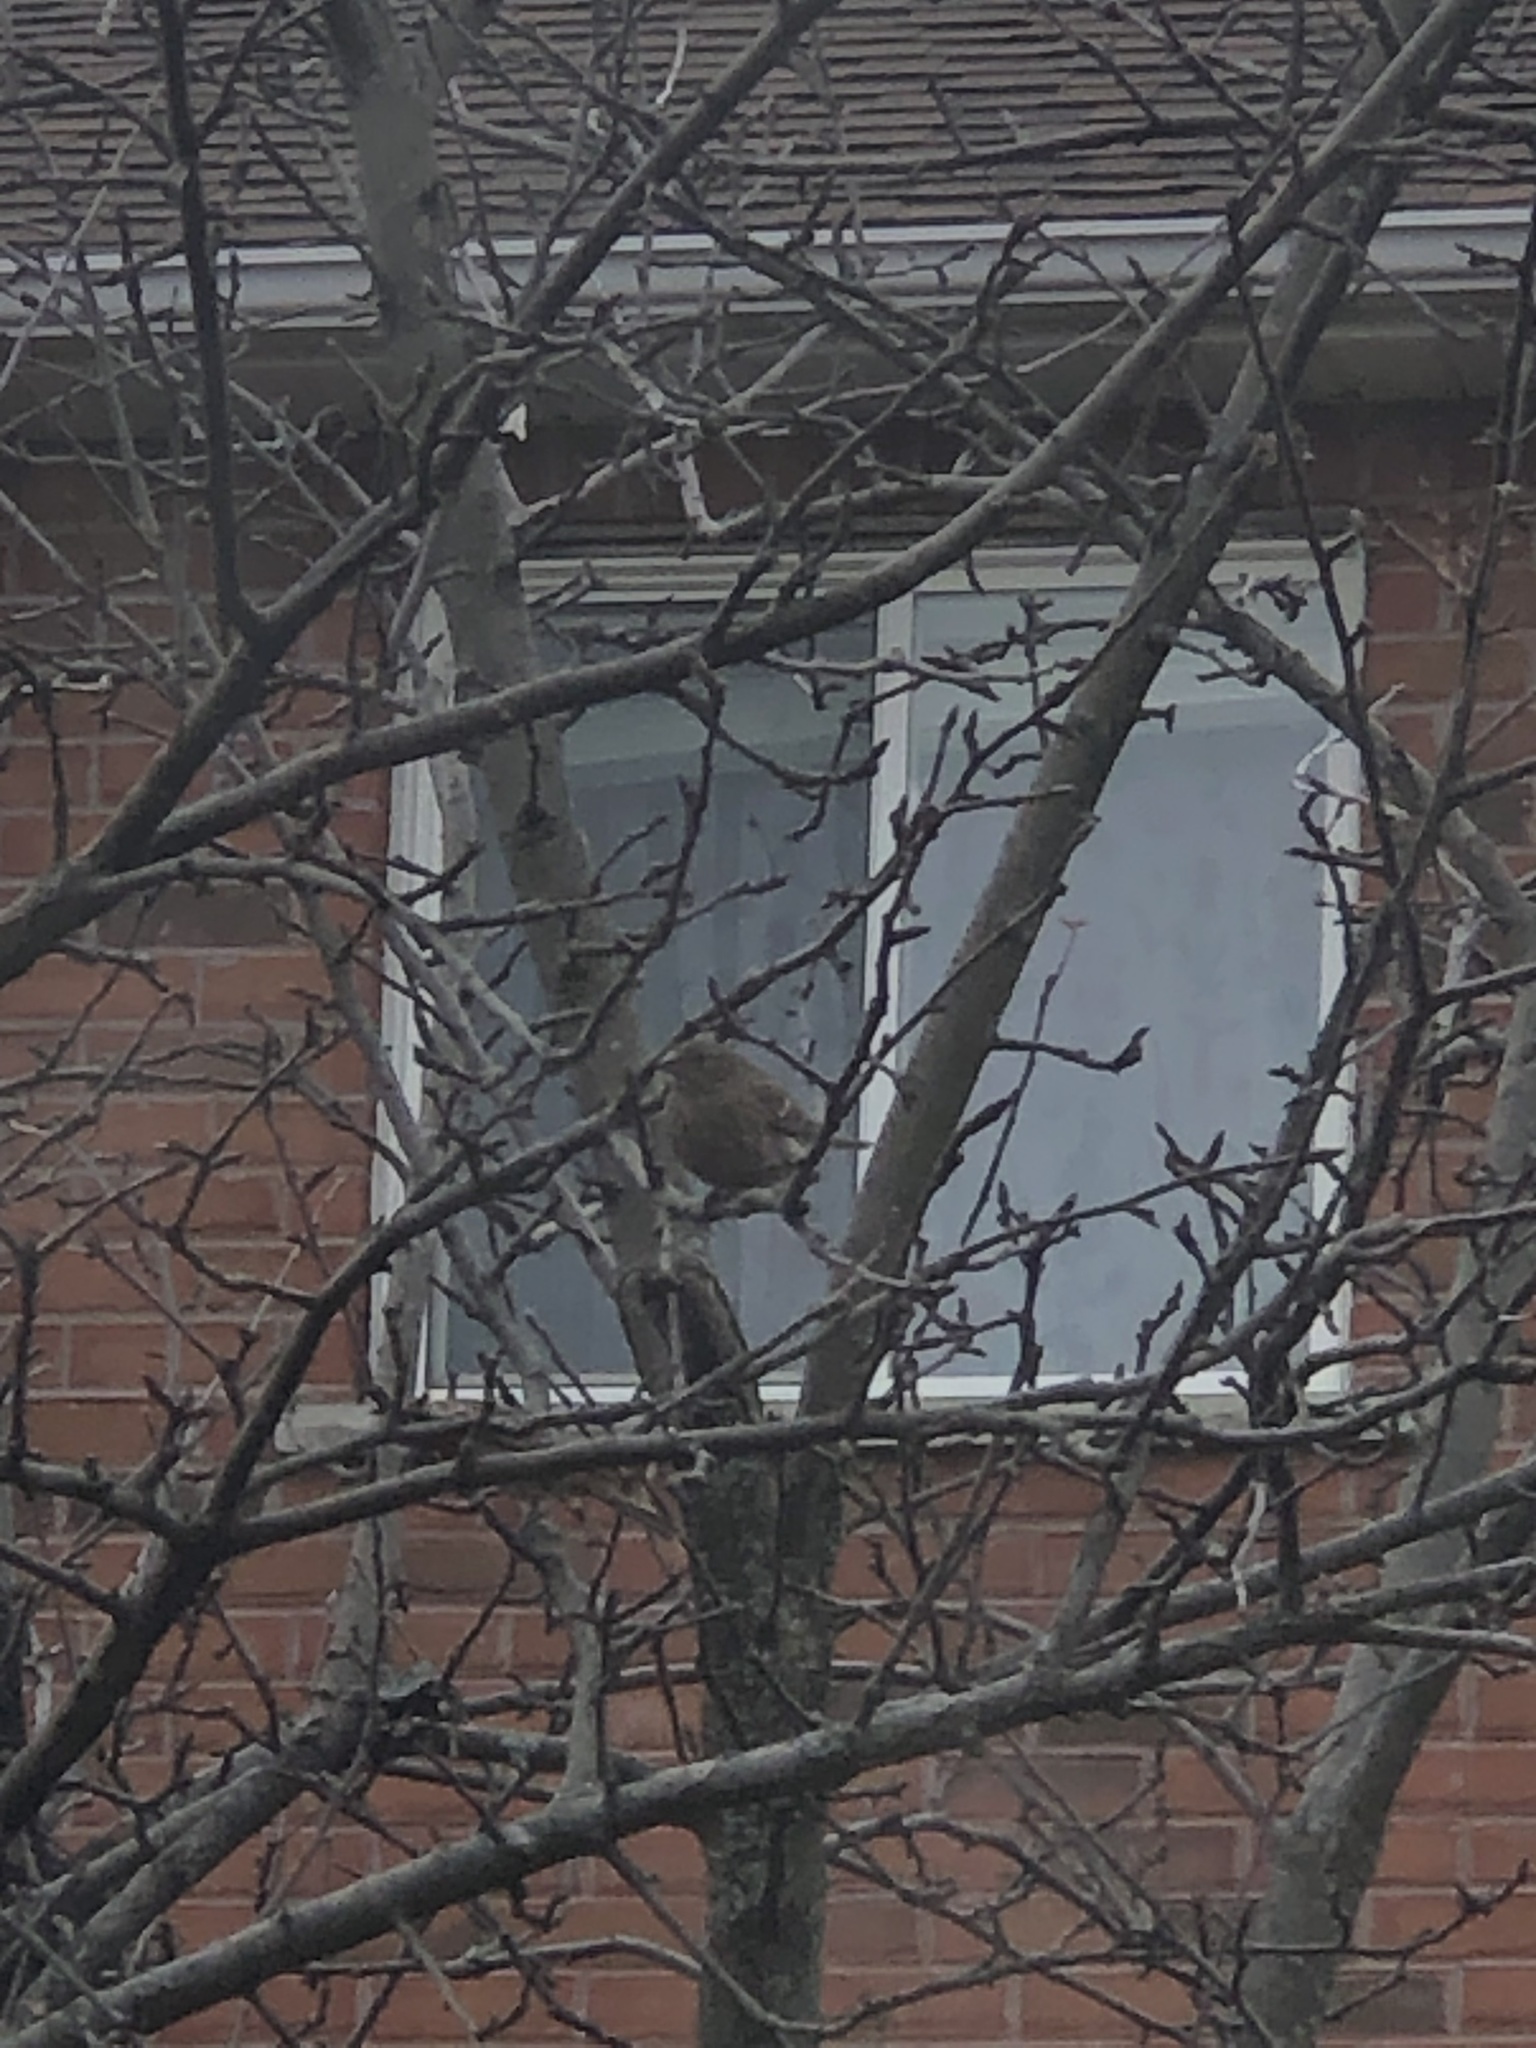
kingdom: Animalia
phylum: Chordata
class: Aves
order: Passeriformes
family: Passeridae
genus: Passer
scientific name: Passer domesticus
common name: House sparrow
